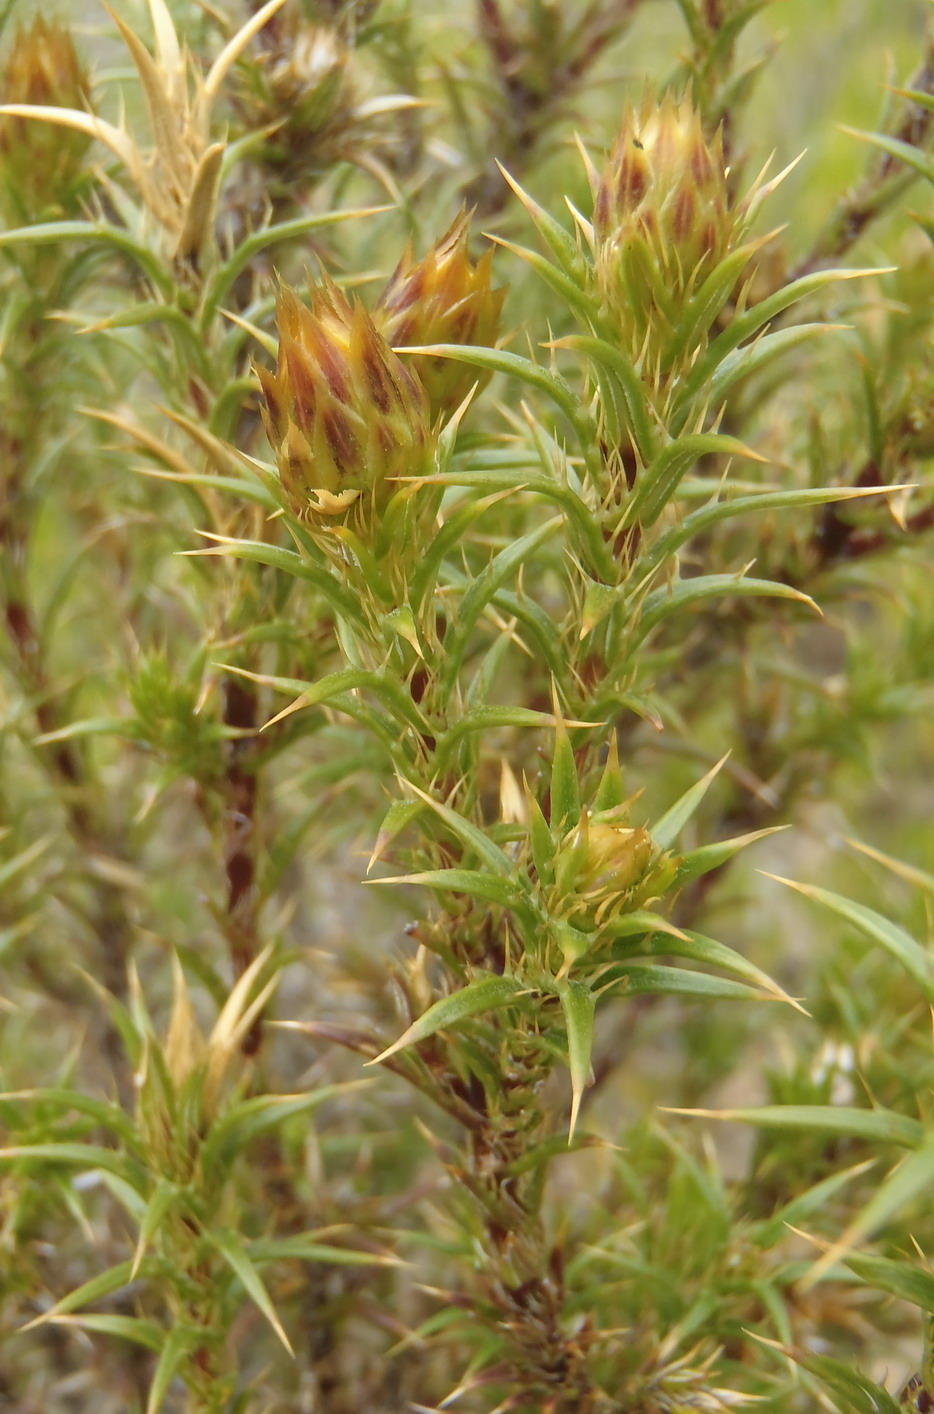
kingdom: Plantae
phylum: Tracheophyta
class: Magnoliopsida
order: Asterales
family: Asteraceae
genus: Cullumia
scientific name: Cullumia bisulca
